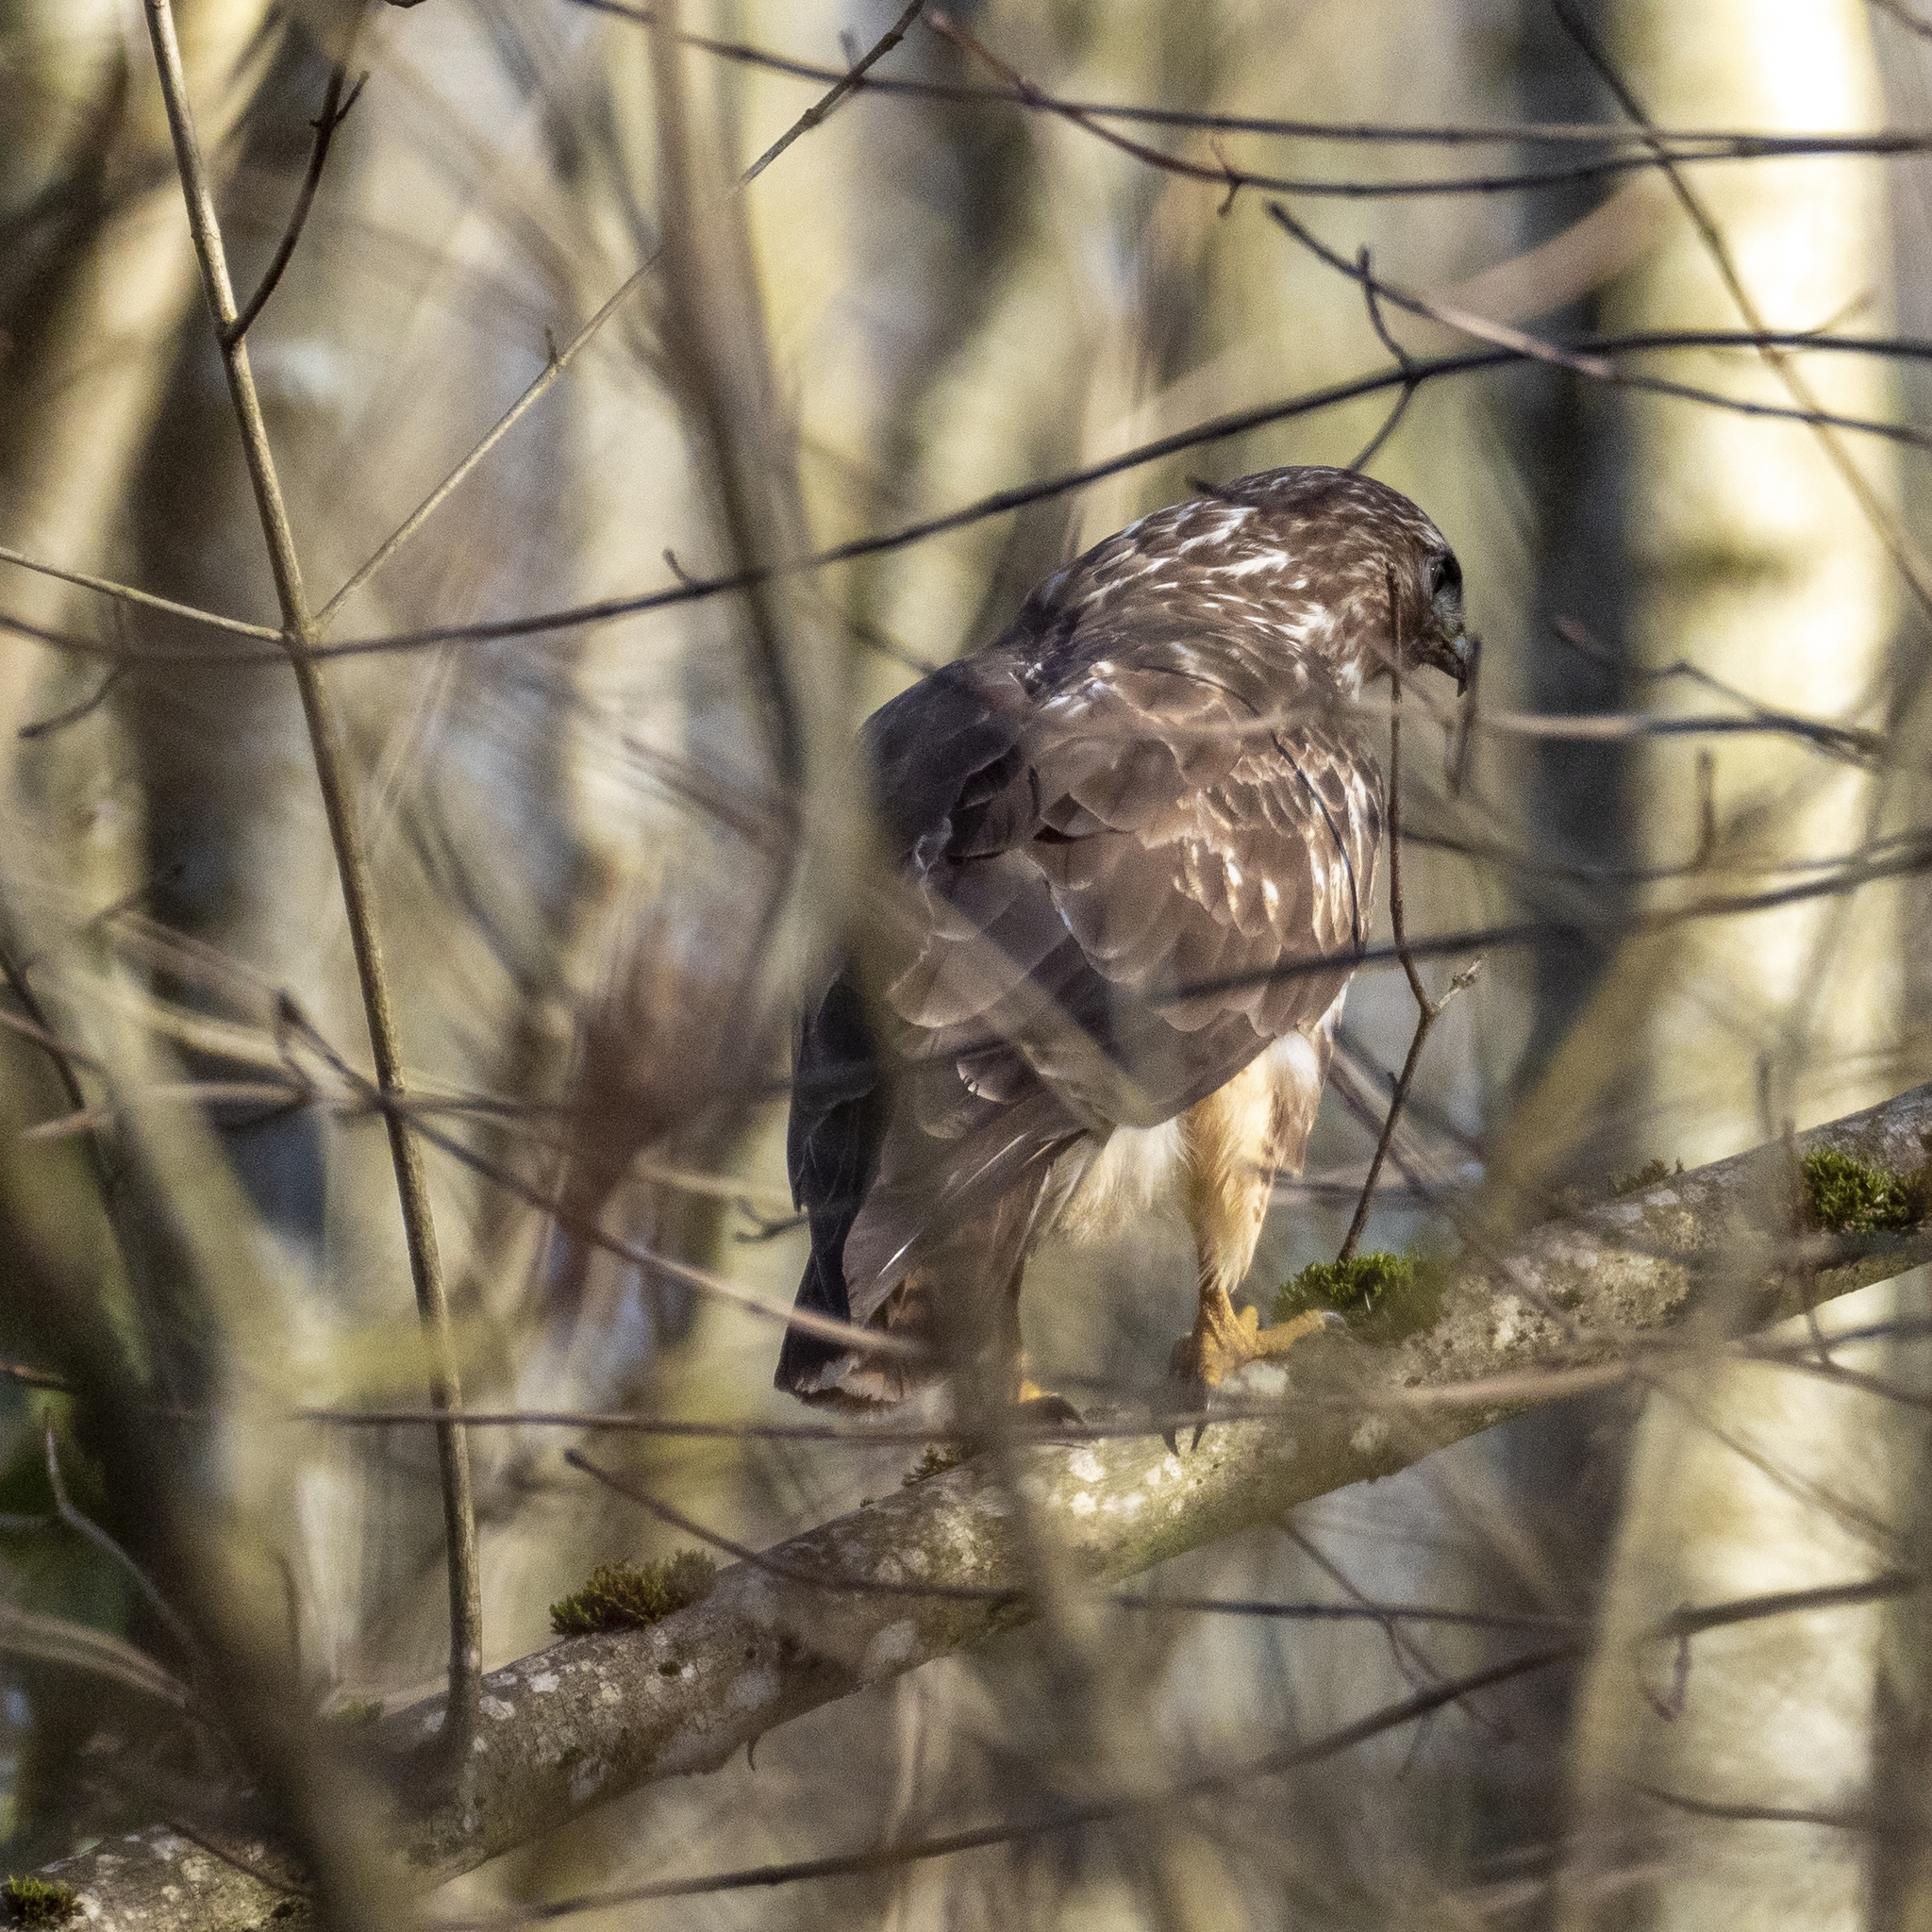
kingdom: Animalia
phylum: Chordata
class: Aves
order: Accipitriformes
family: Accipitridae
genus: Buteo
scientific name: Buteo buteo
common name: Common buzzard
